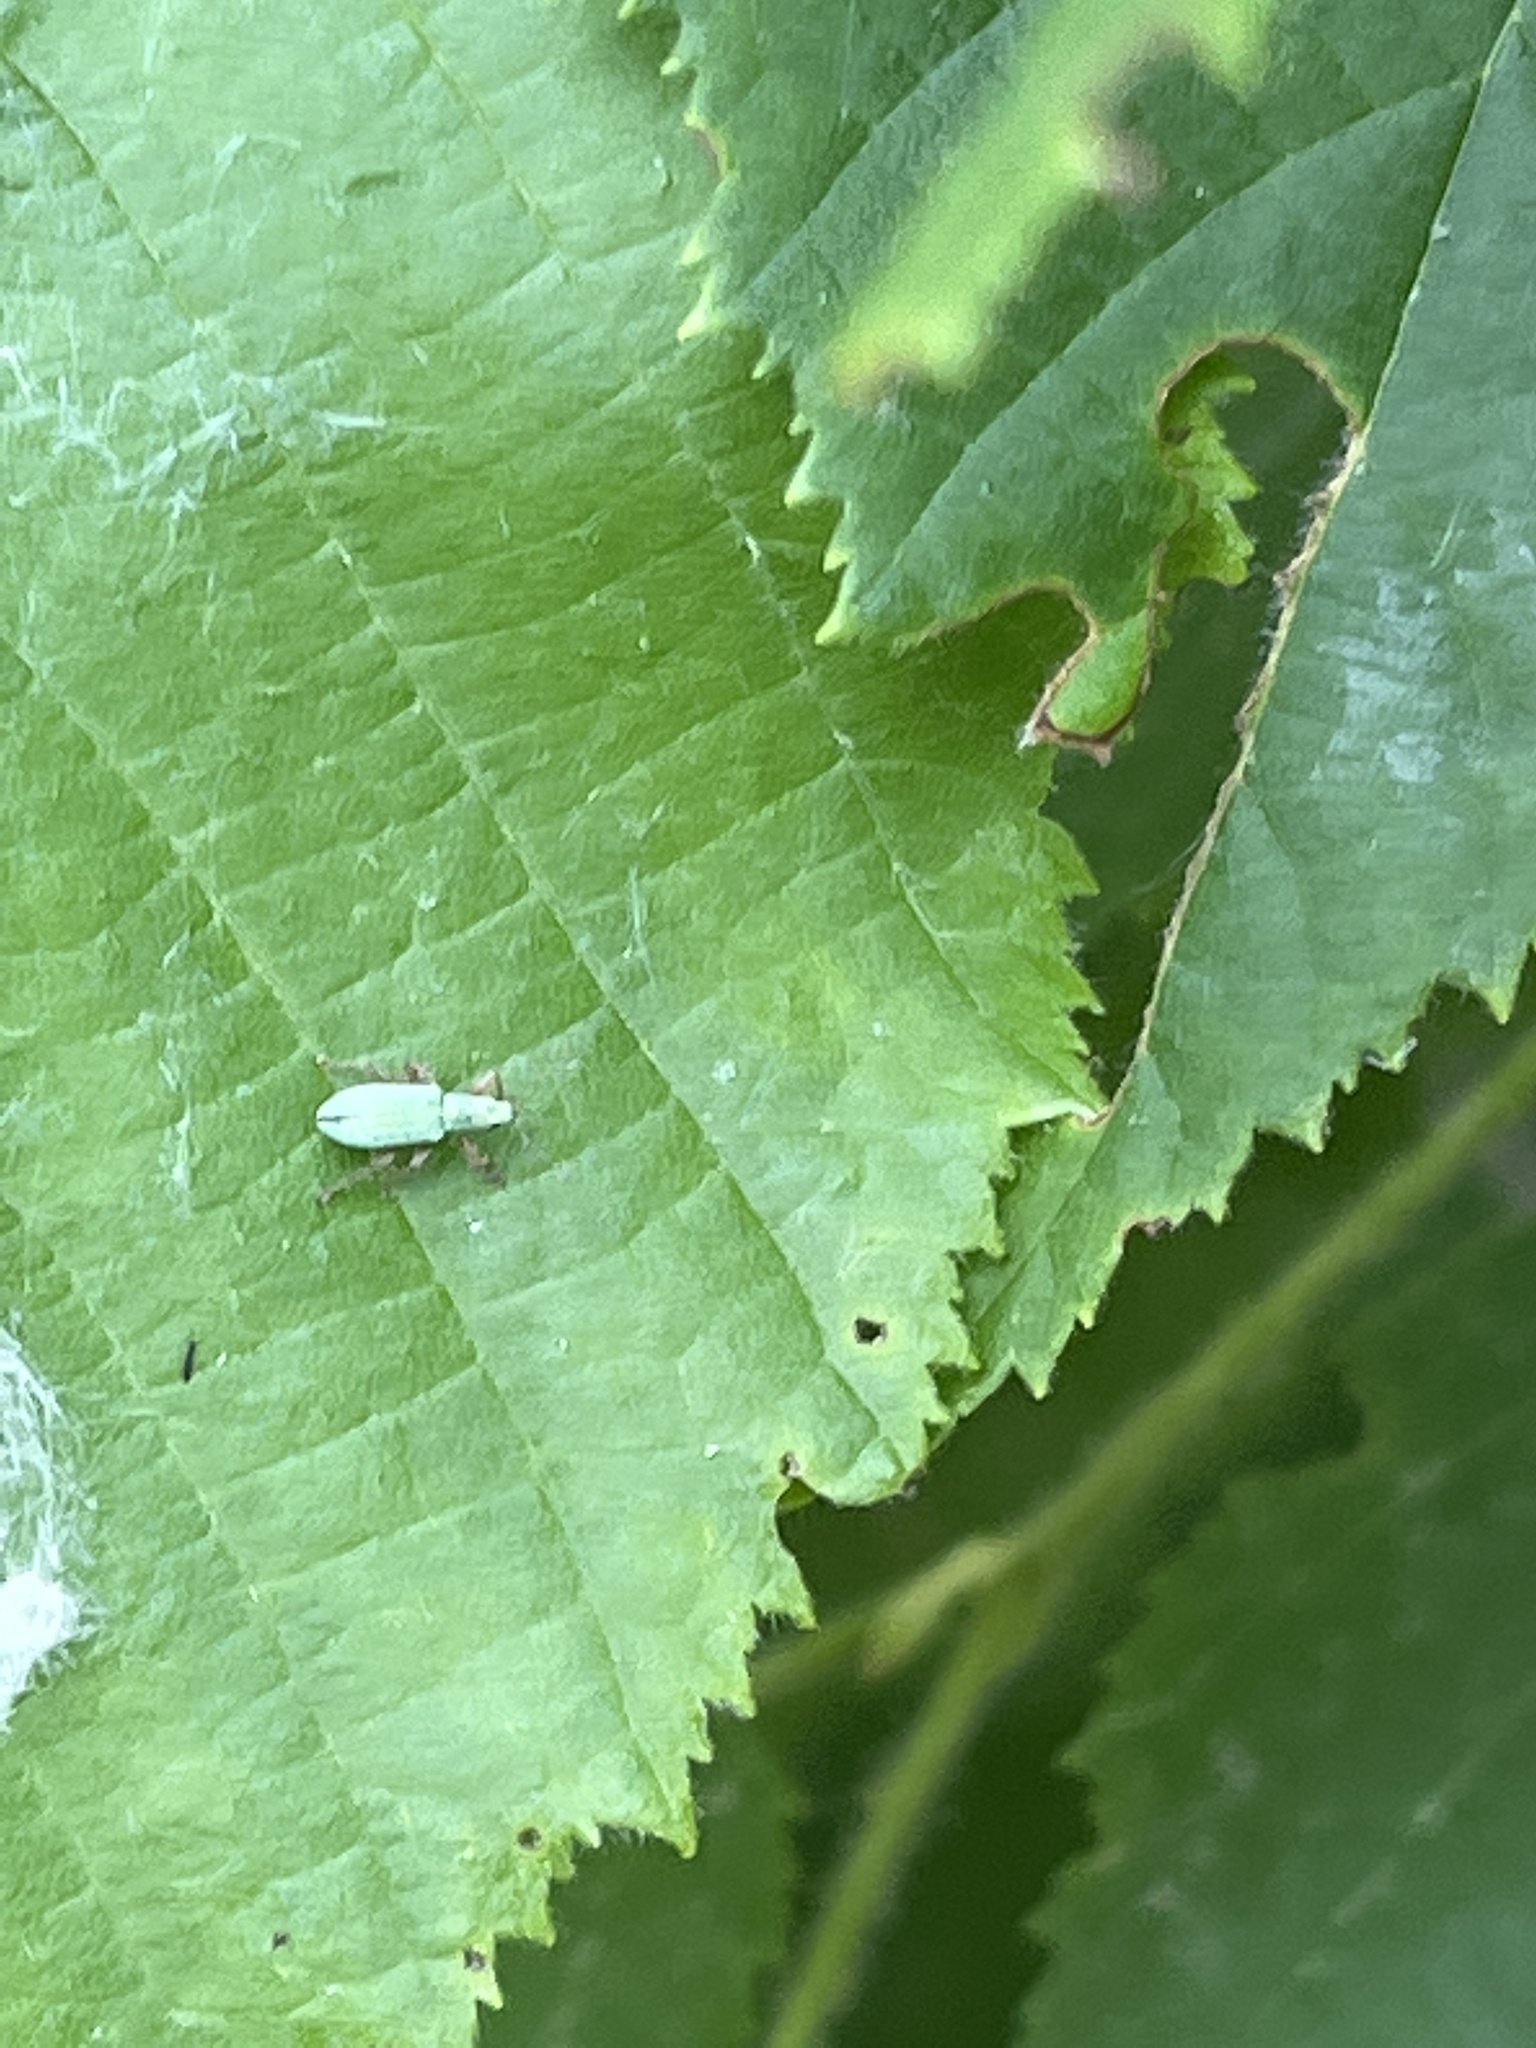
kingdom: Animalia
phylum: Arthropoda
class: Insecta
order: Coleoptera
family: Curculionidae
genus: Polydrusus
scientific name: Polydrusus impressifrons
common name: Weevil
